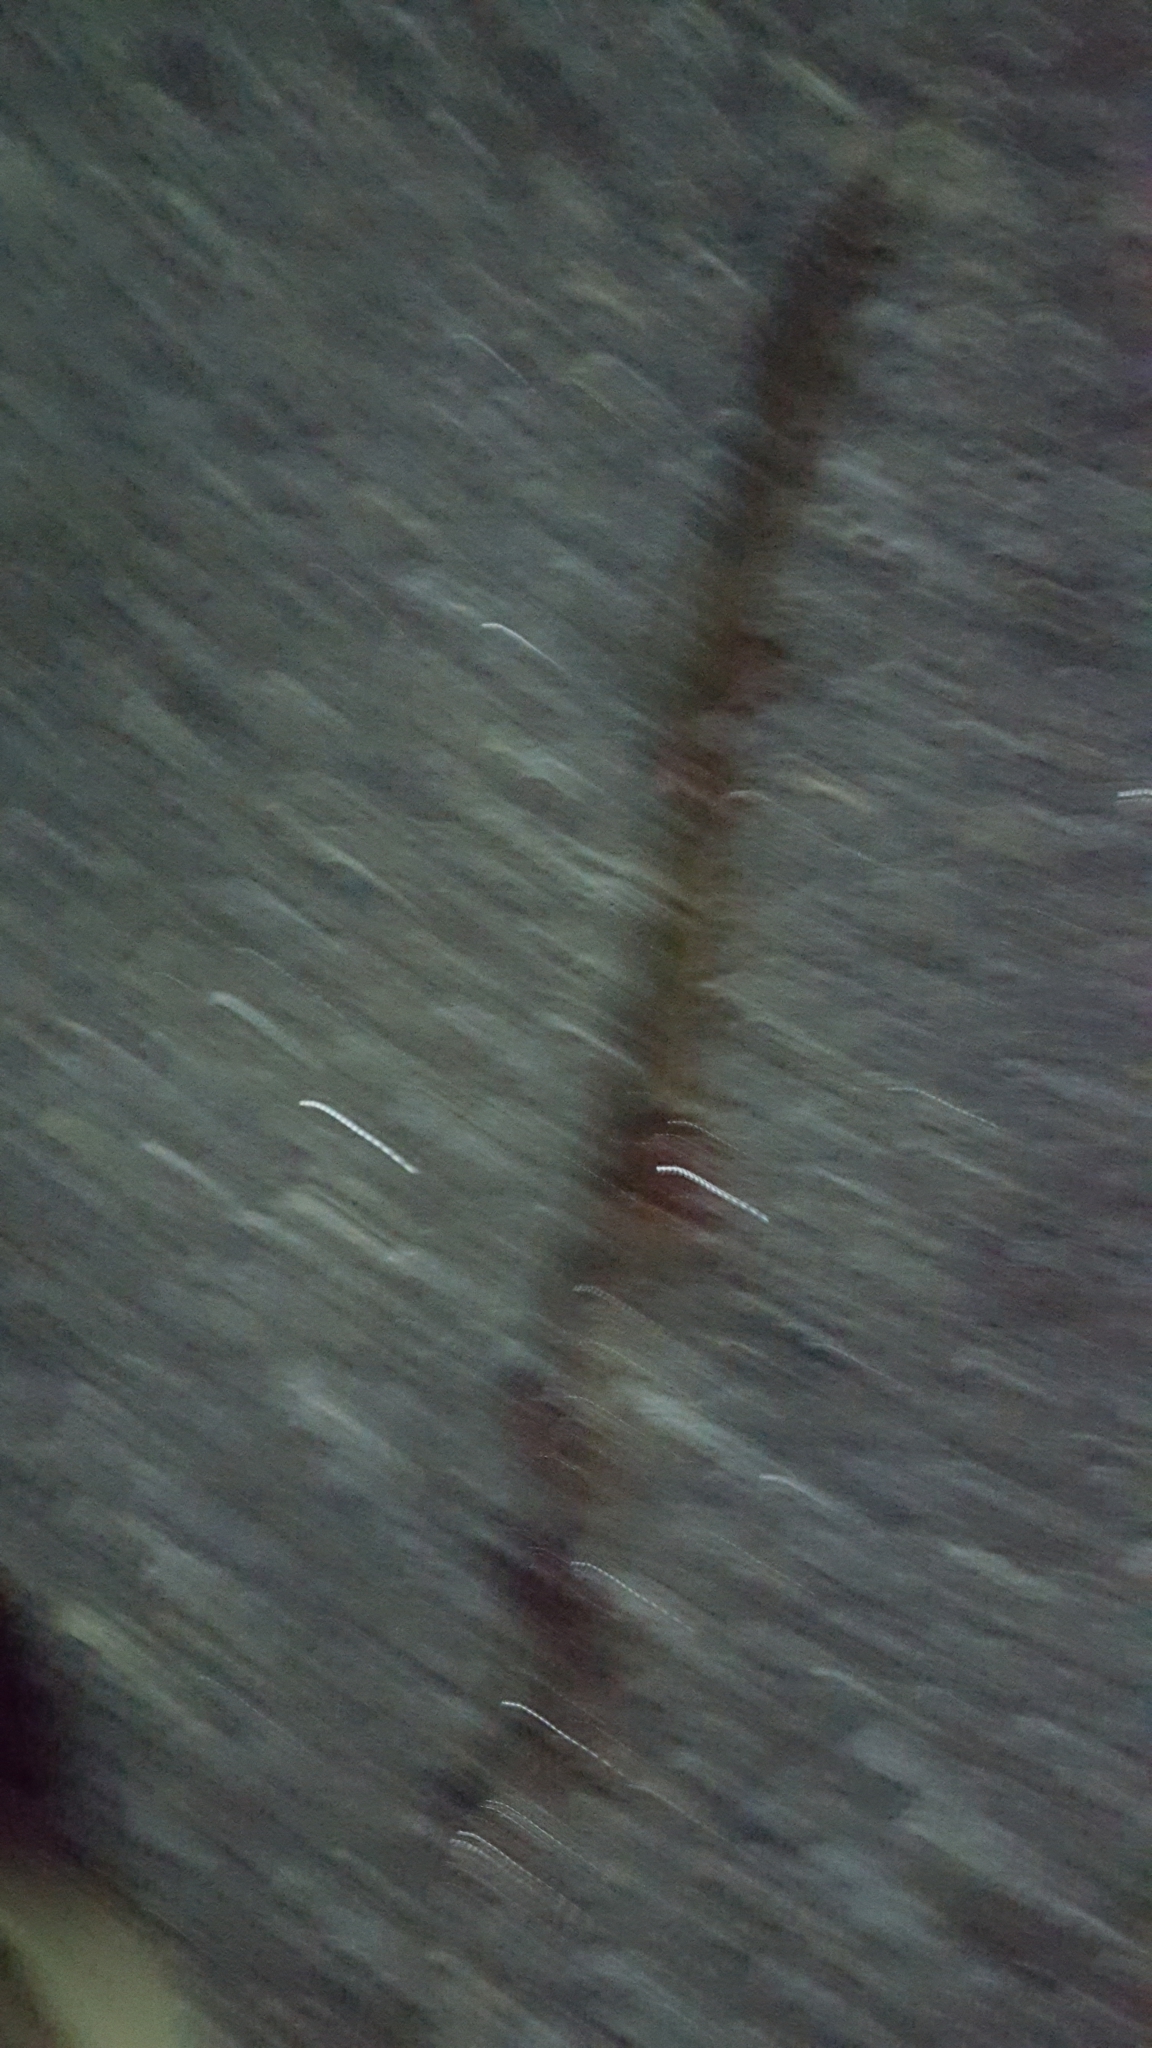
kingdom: Animalia
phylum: Chordata
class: Squamata
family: Colubridae
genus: Haldea
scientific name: Haldea striatula
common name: Rough earth snake
